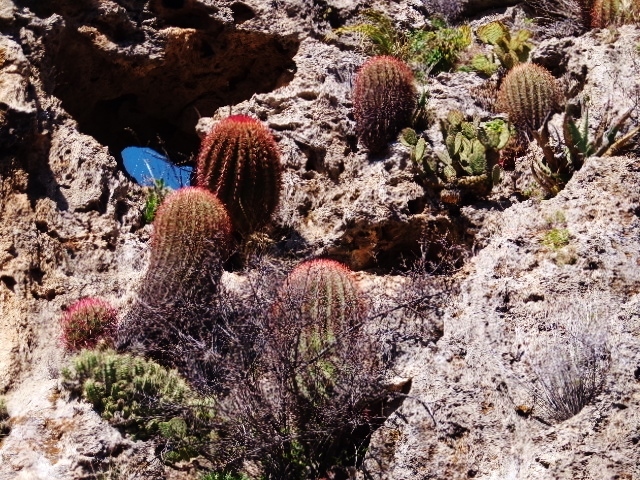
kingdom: Plantae
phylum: Tracheophyta
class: Magnoliopsida
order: Caryophyllales
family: Cactaceae
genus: Ferocactus
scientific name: Ferocactus pilosus
